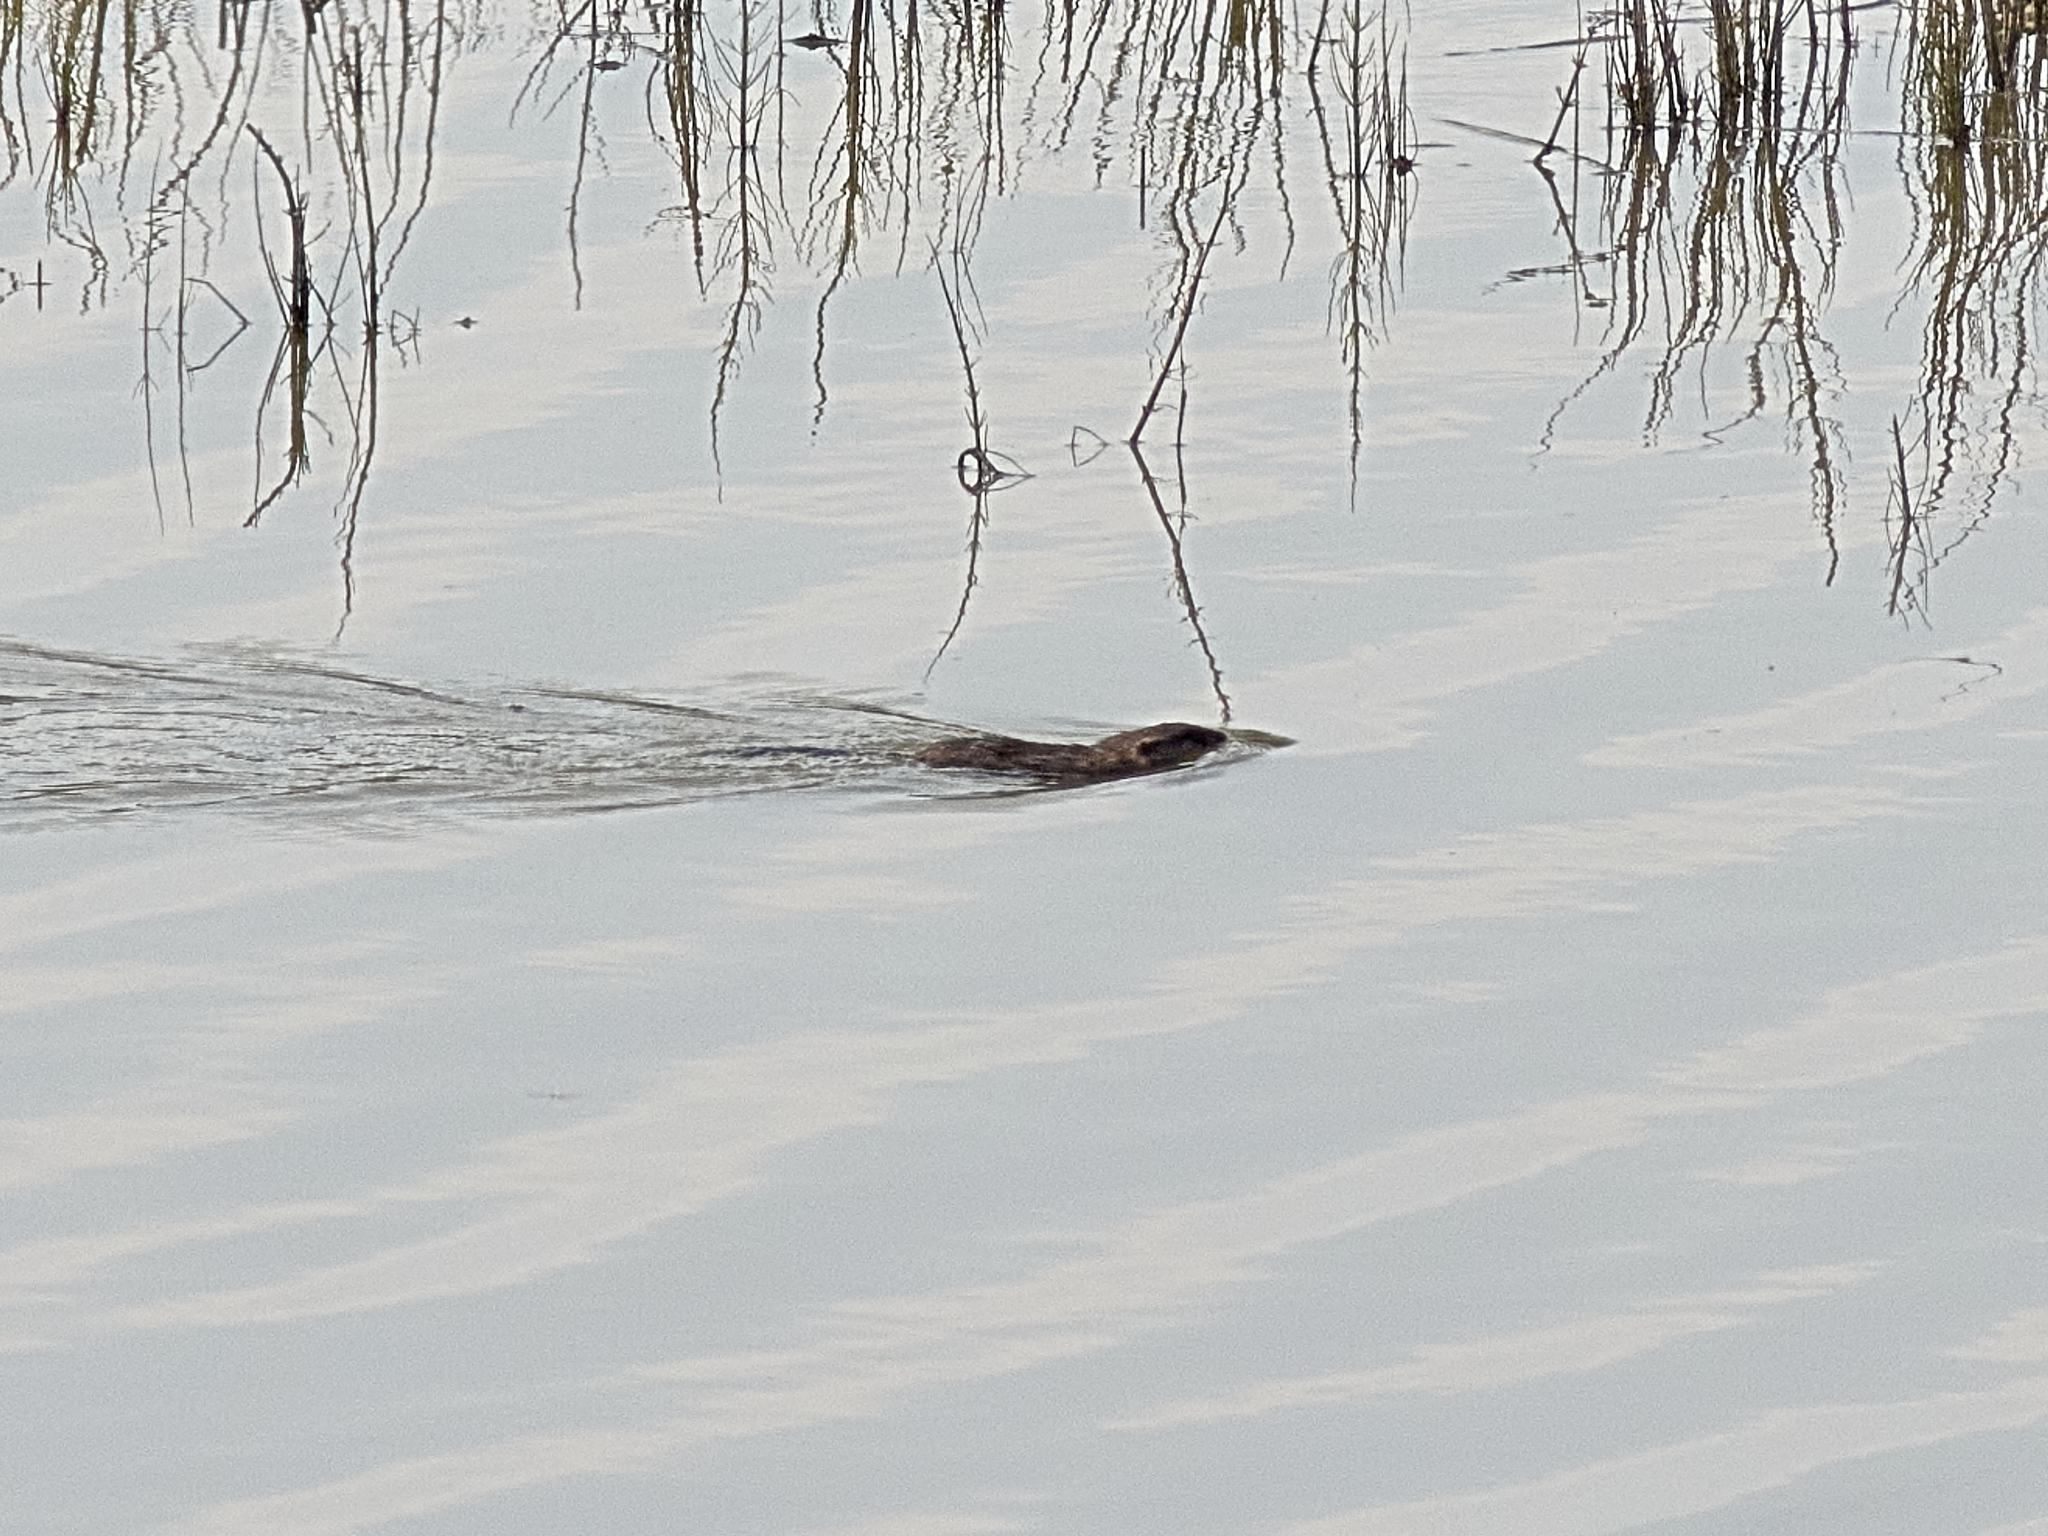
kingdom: Animalia
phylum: Chordata
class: Mammalia
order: Rodentia
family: Cricetidae
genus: Ondatra
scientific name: Ondatra zibethicus
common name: Muskrat
